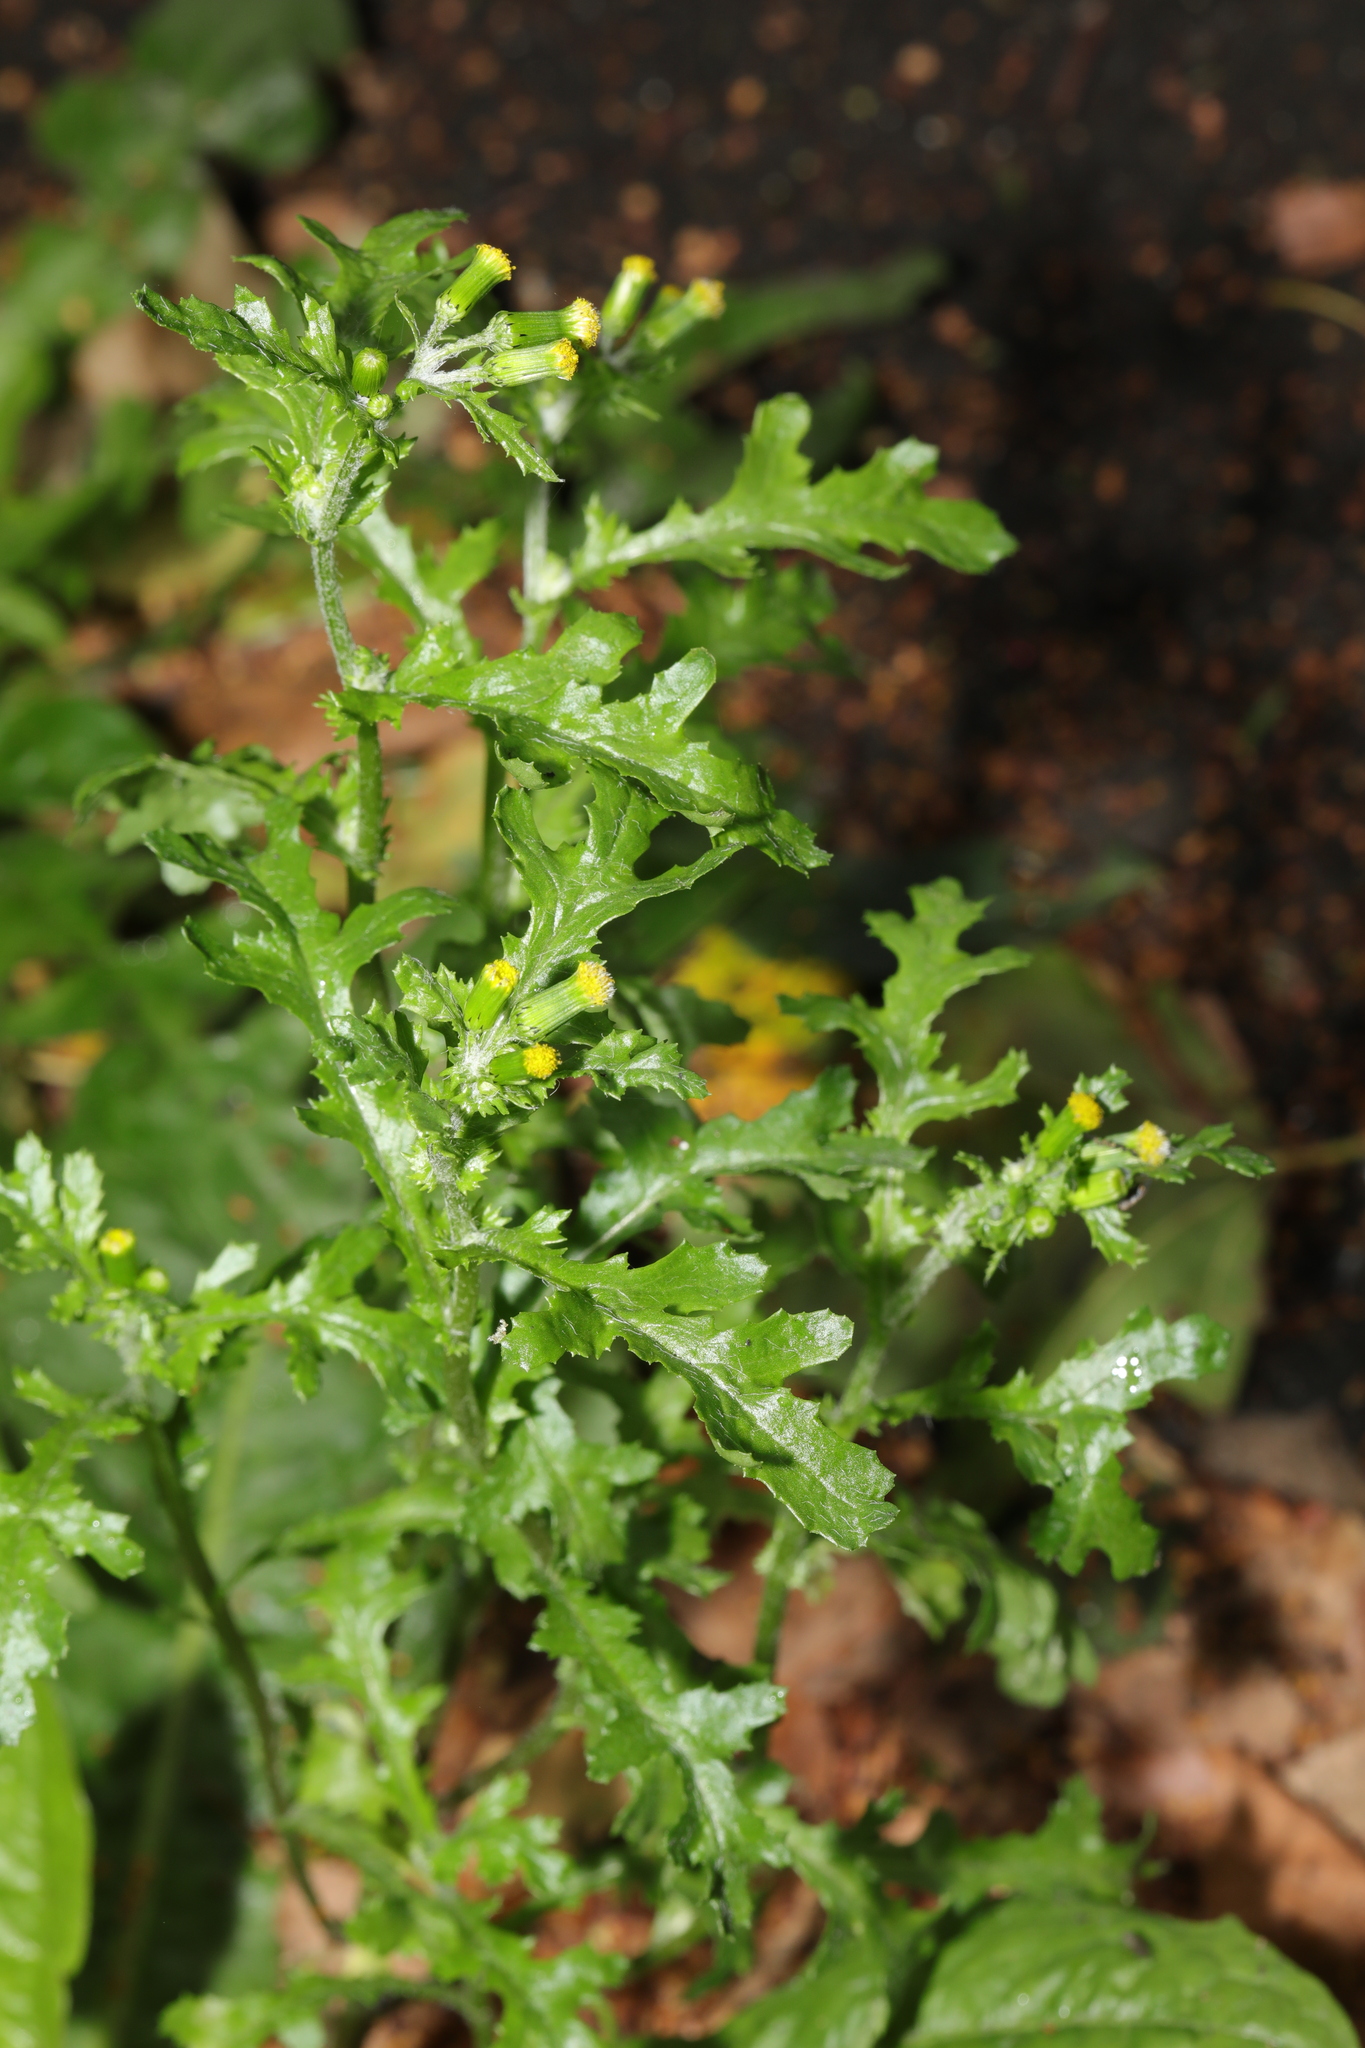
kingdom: Plantae
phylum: Tracheophyta
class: Magnoliopsida
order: Asterales
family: Asteraceae
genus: Senecio
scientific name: Senecio vulgaris
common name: Old-man-in-the-spring
